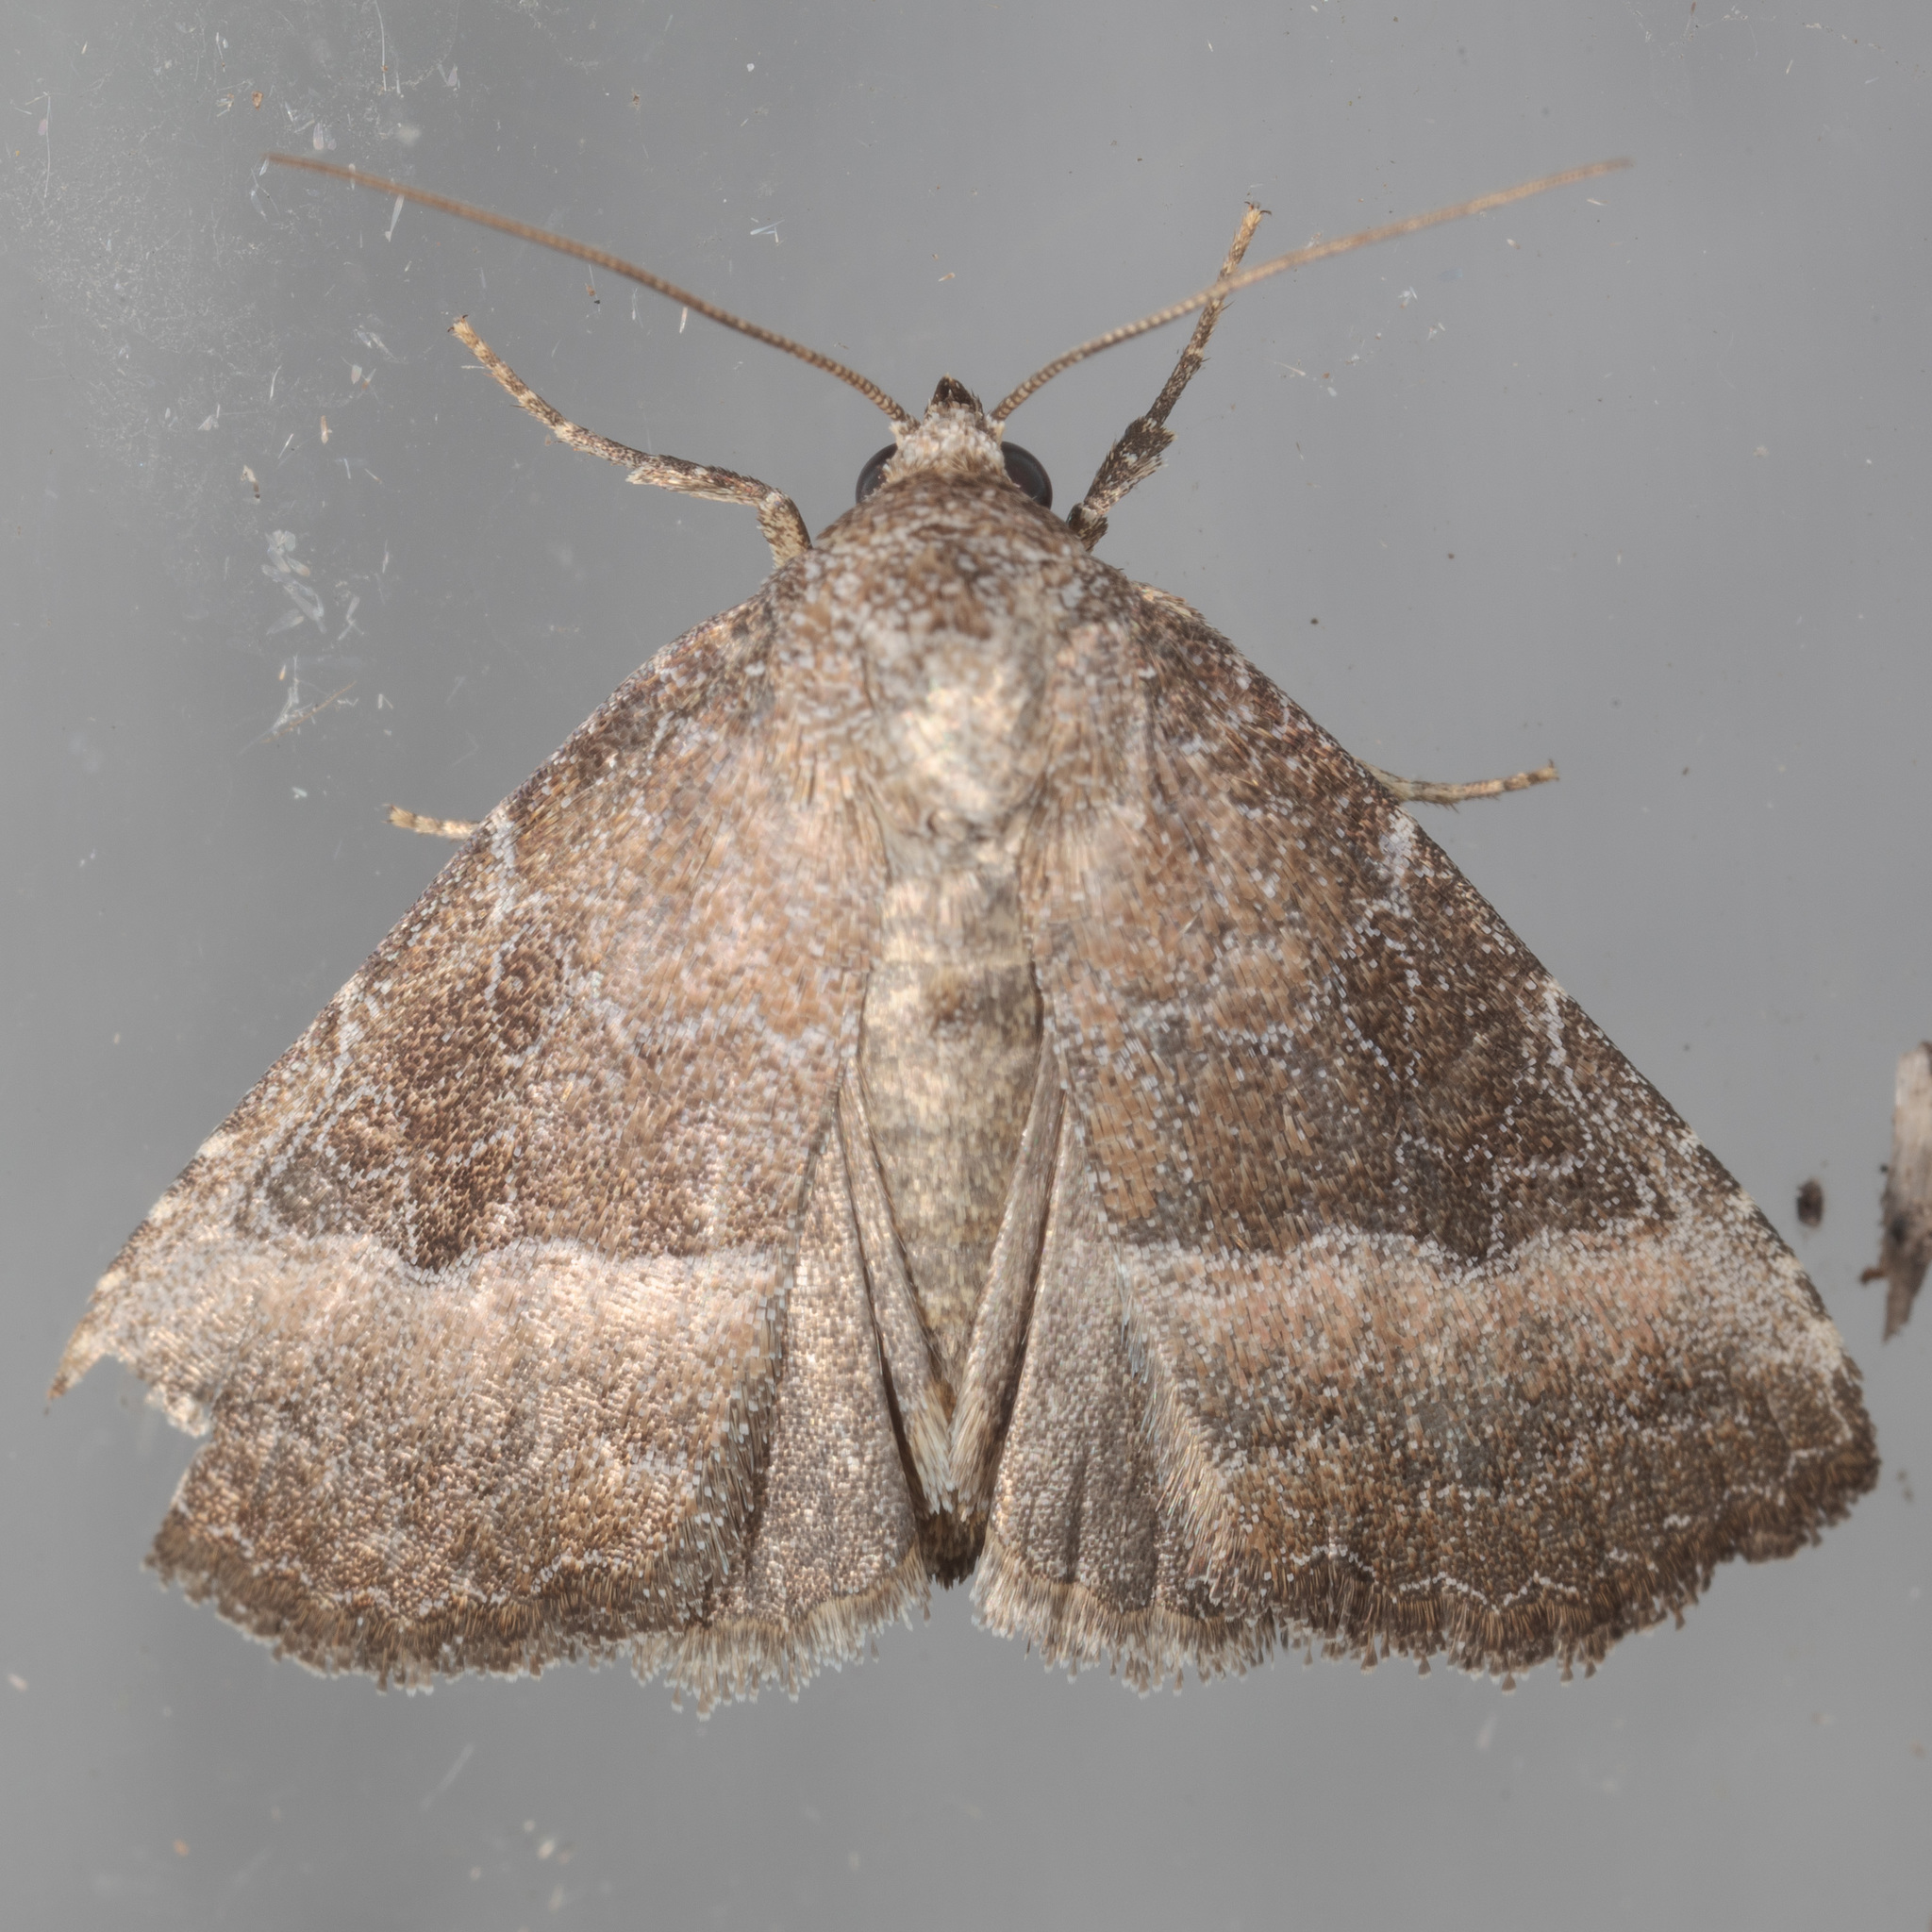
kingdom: Animalia
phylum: Arthropoda
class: Insecta
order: Lepidoptera
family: Noctuidae
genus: Ogdoconta
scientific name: Ogdoconta cinereola
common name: Common pinkband
